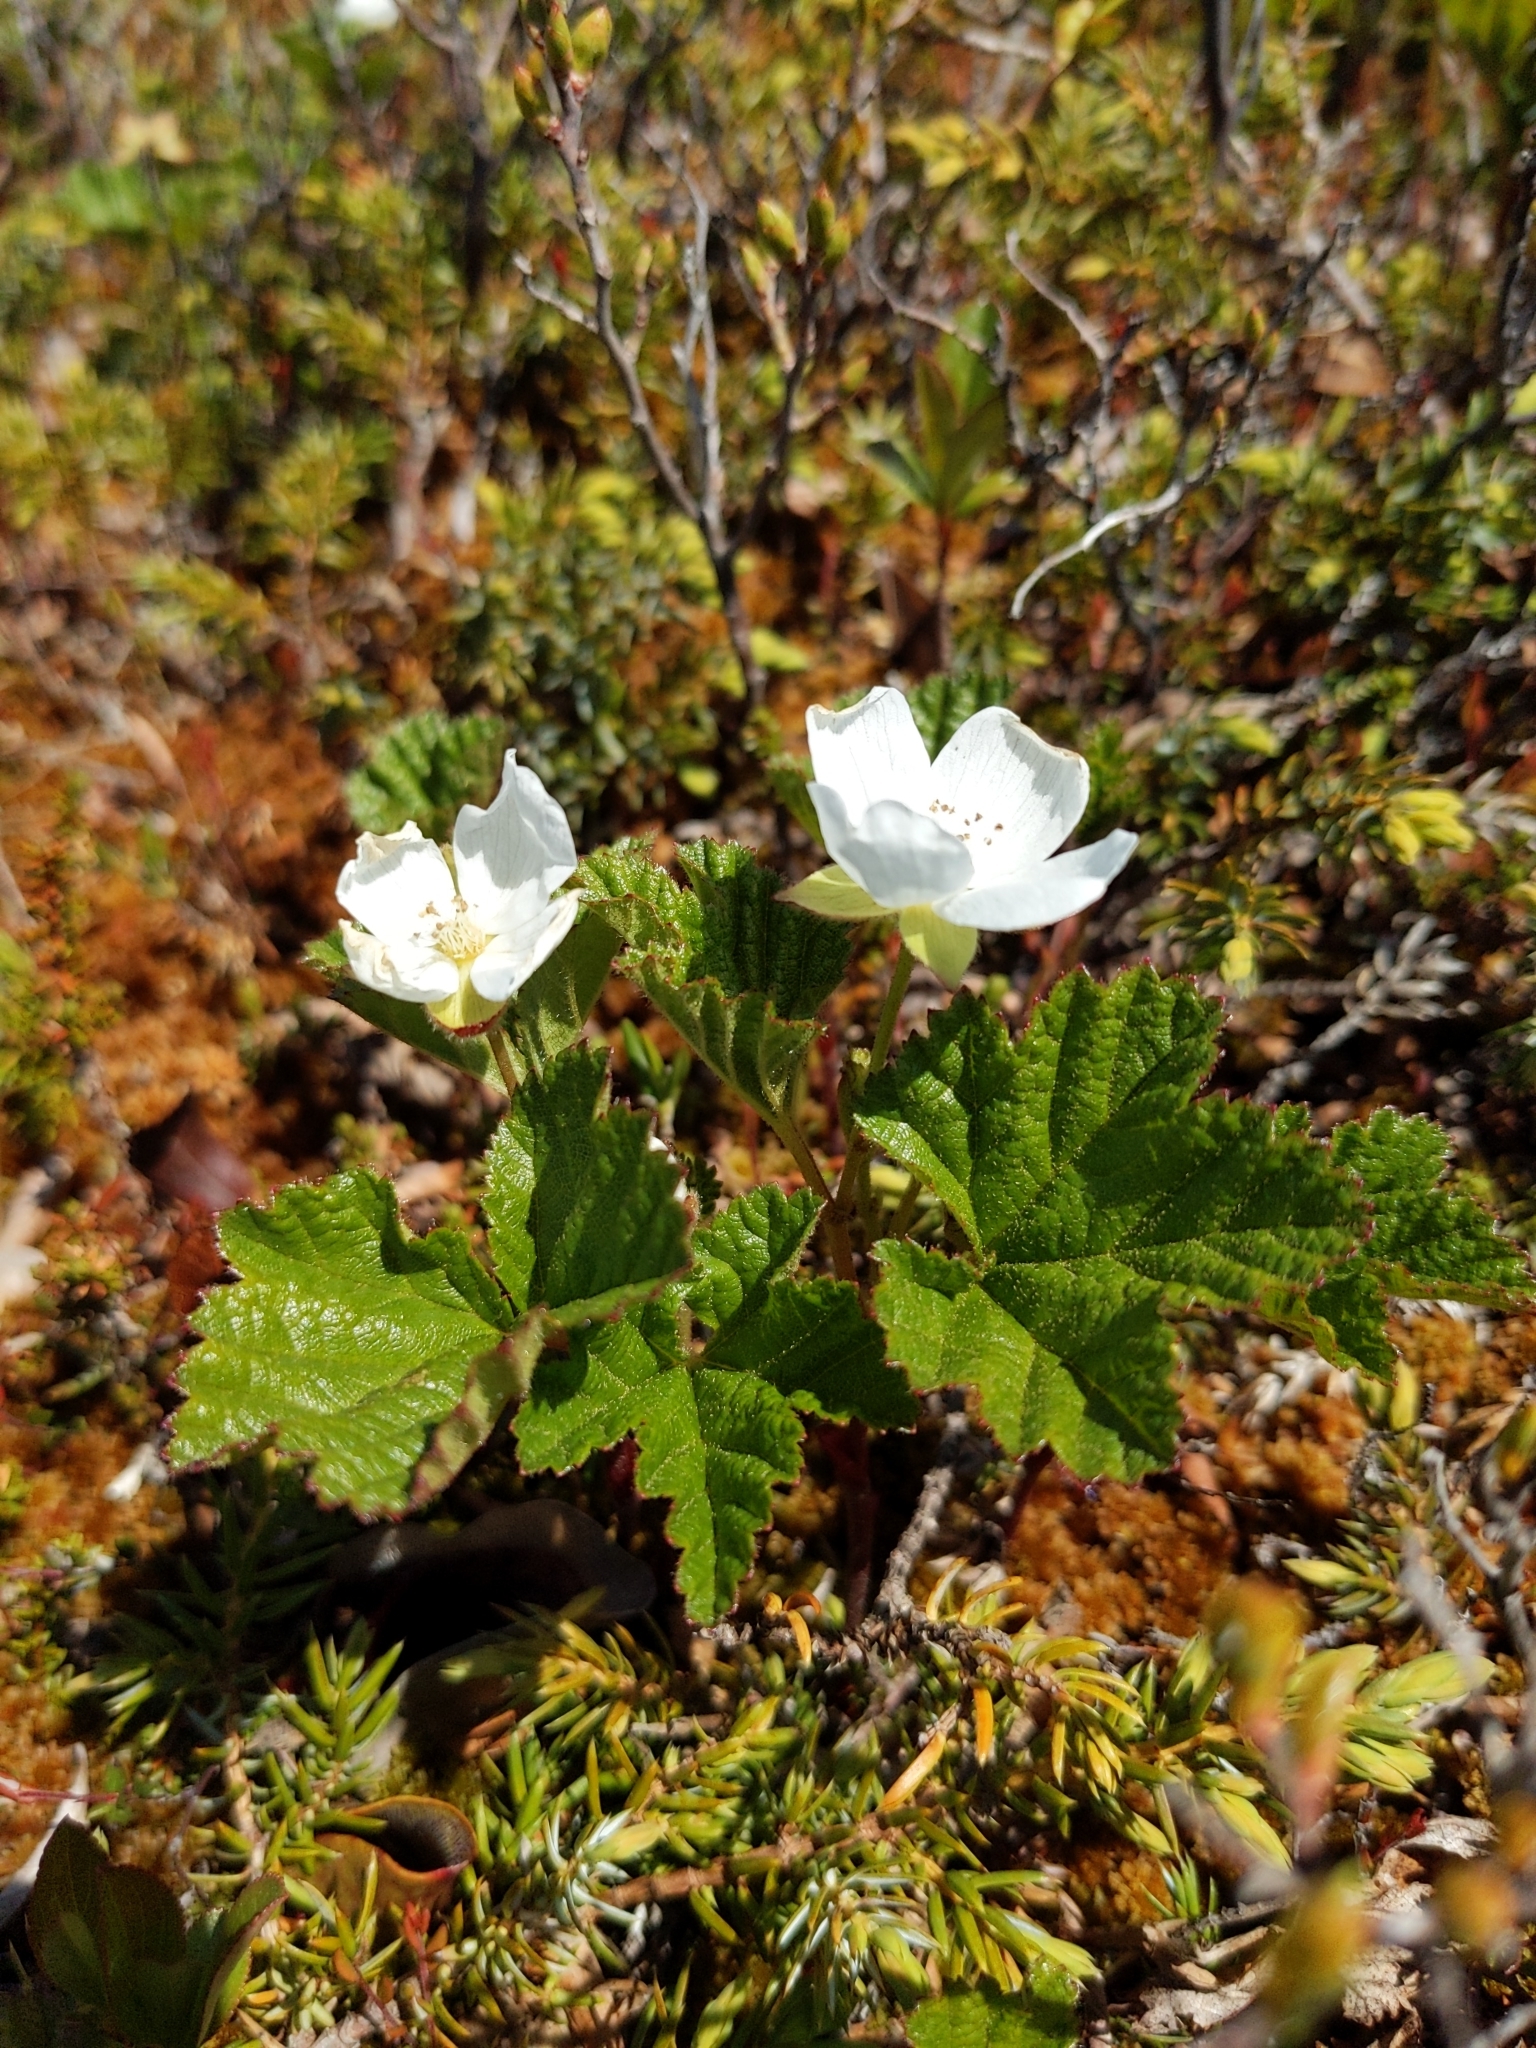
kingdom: Plantae
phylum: Tracheophyta
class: Magnoliopsida
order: Rosales
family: Rosaceae
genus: Rubus
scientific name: Rubus chamaemorus
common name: Cloudberry
